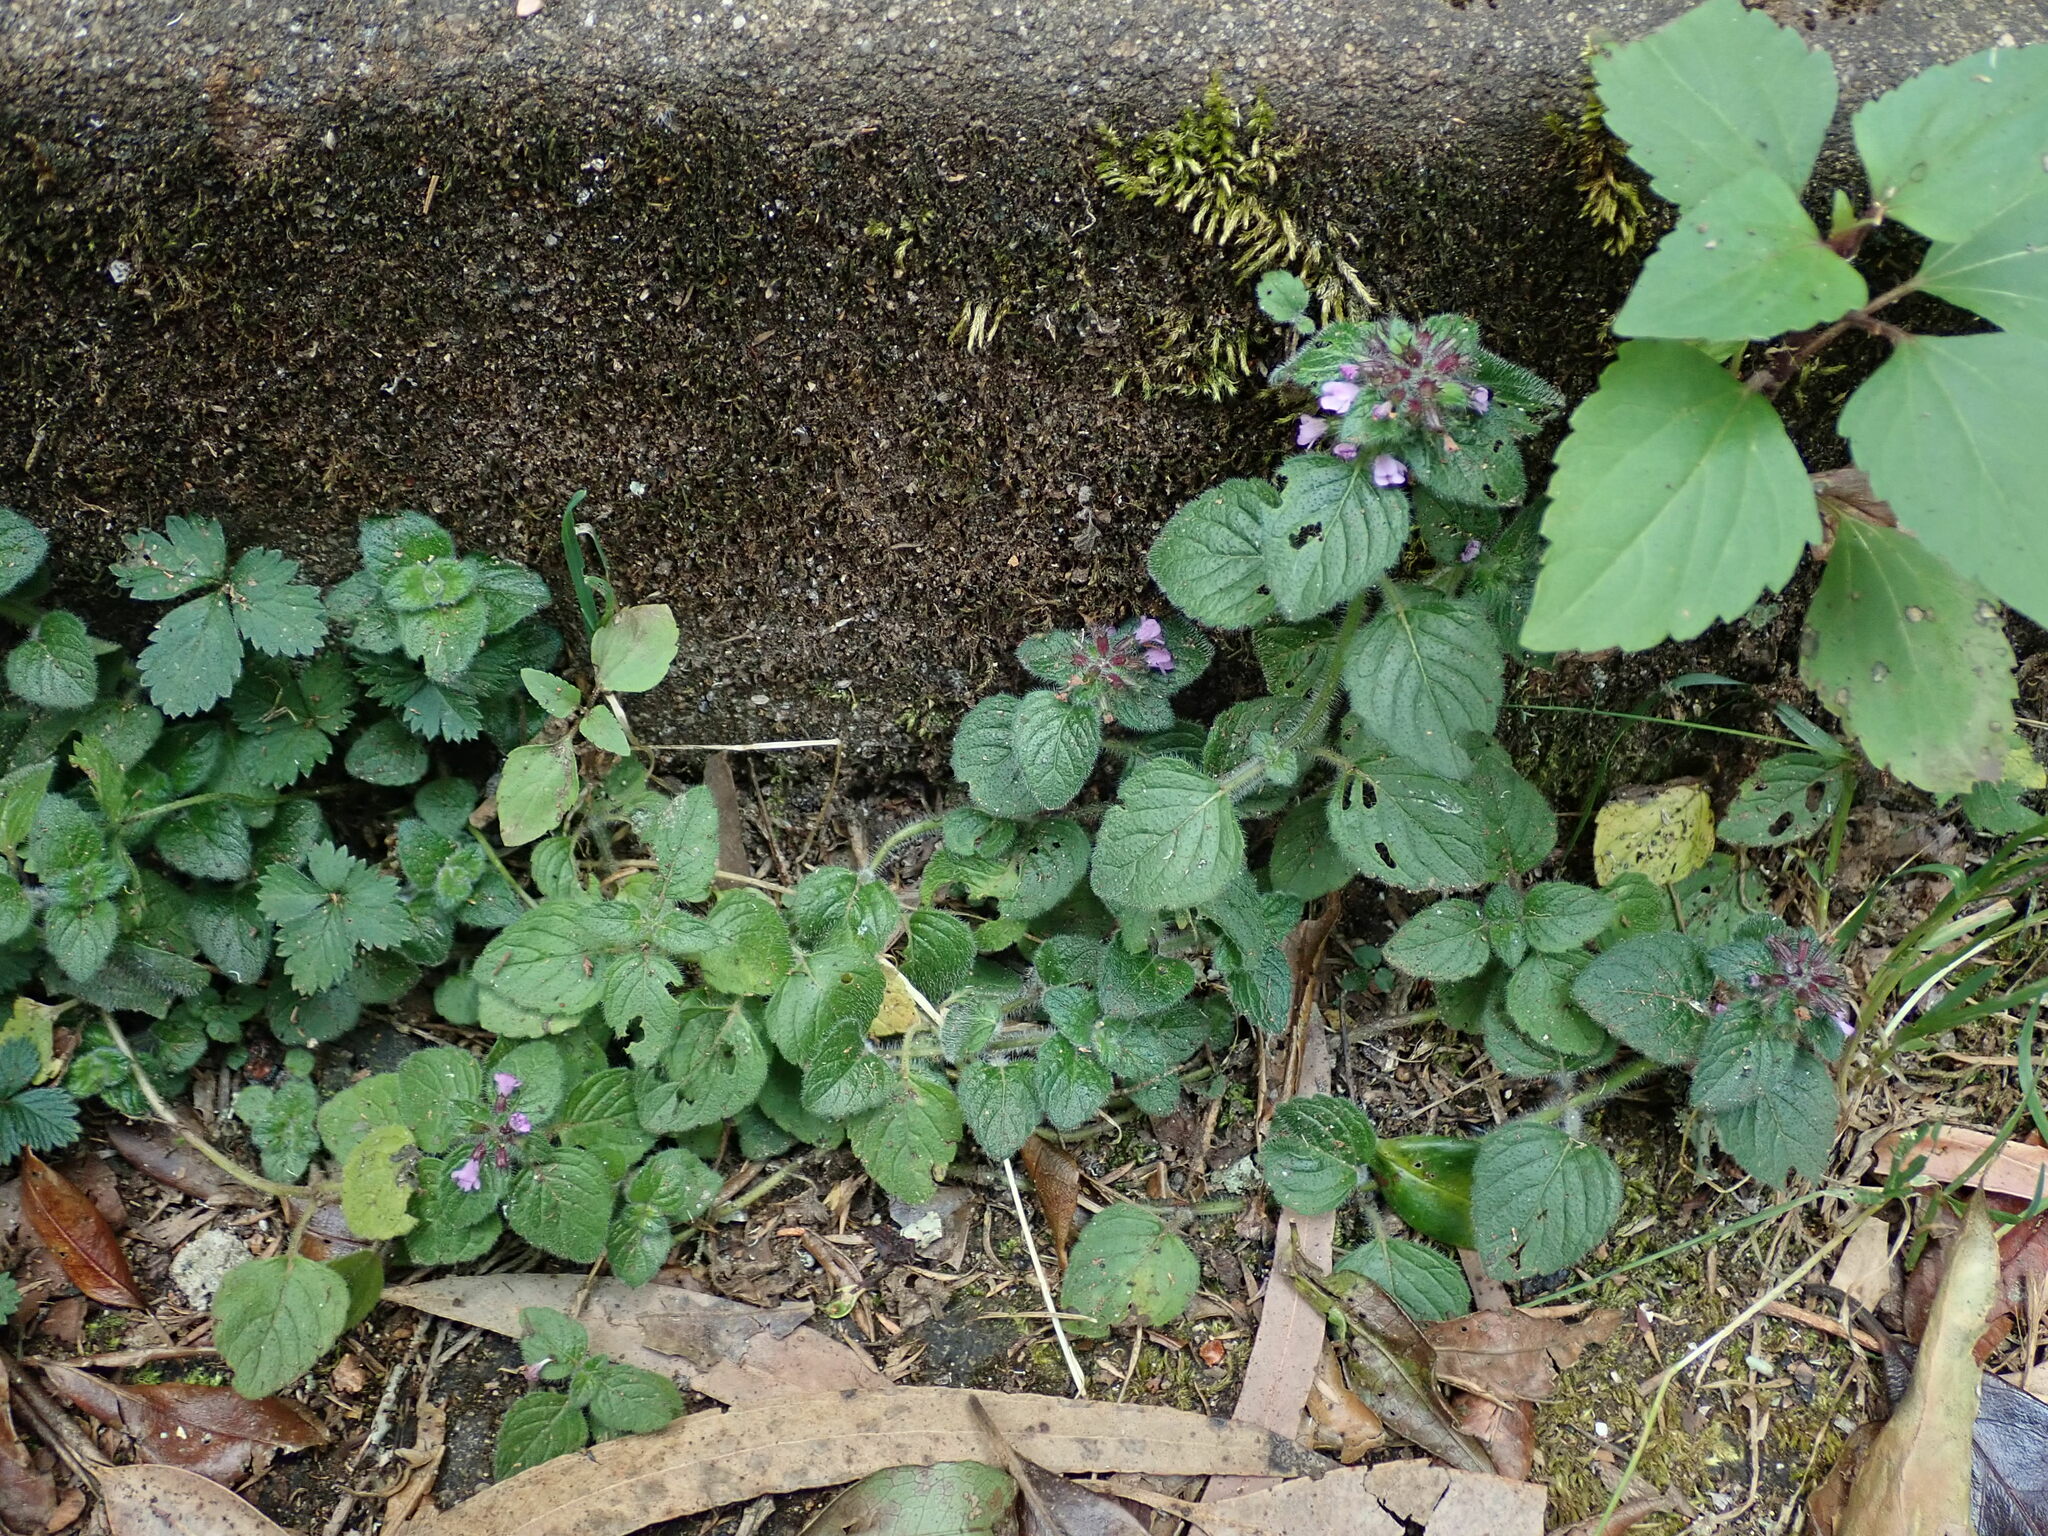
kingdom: Plantae
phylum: Tracheophyta
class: Magnoliopsida
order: Lamiales
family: Lamiaceae
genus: Clinopodium
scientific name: Clinopodium vulgare
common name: Wild basil
